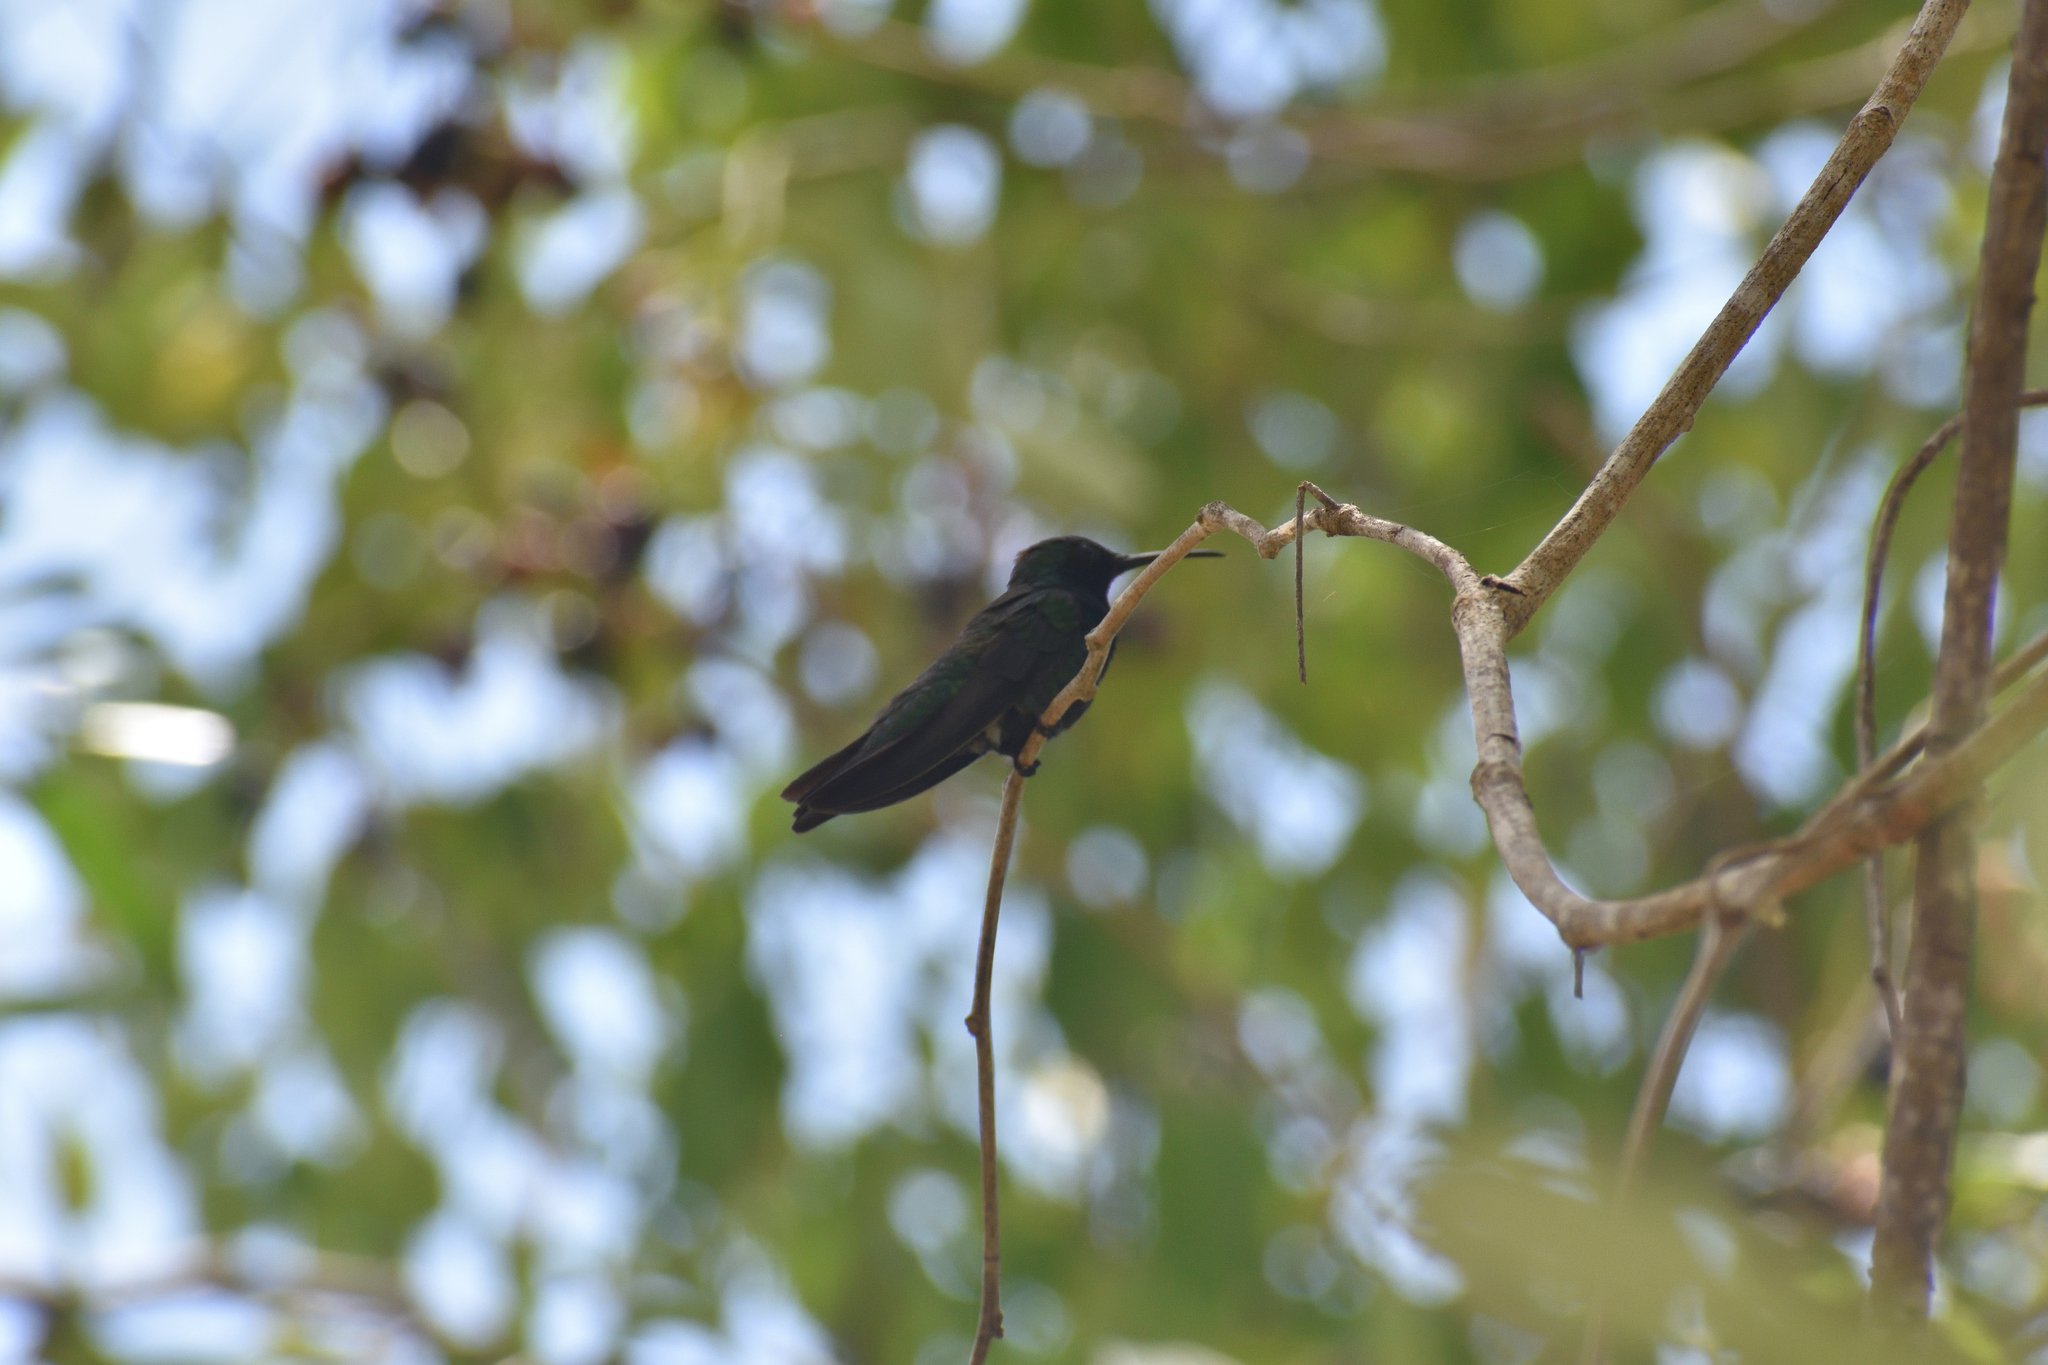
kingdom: Animalia
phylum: Chordata
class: Aves
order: Apodiformes
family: Trochilidae
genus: Anthracothorax
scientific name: Anthracothorax prevostii
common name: Green-breasted mango
